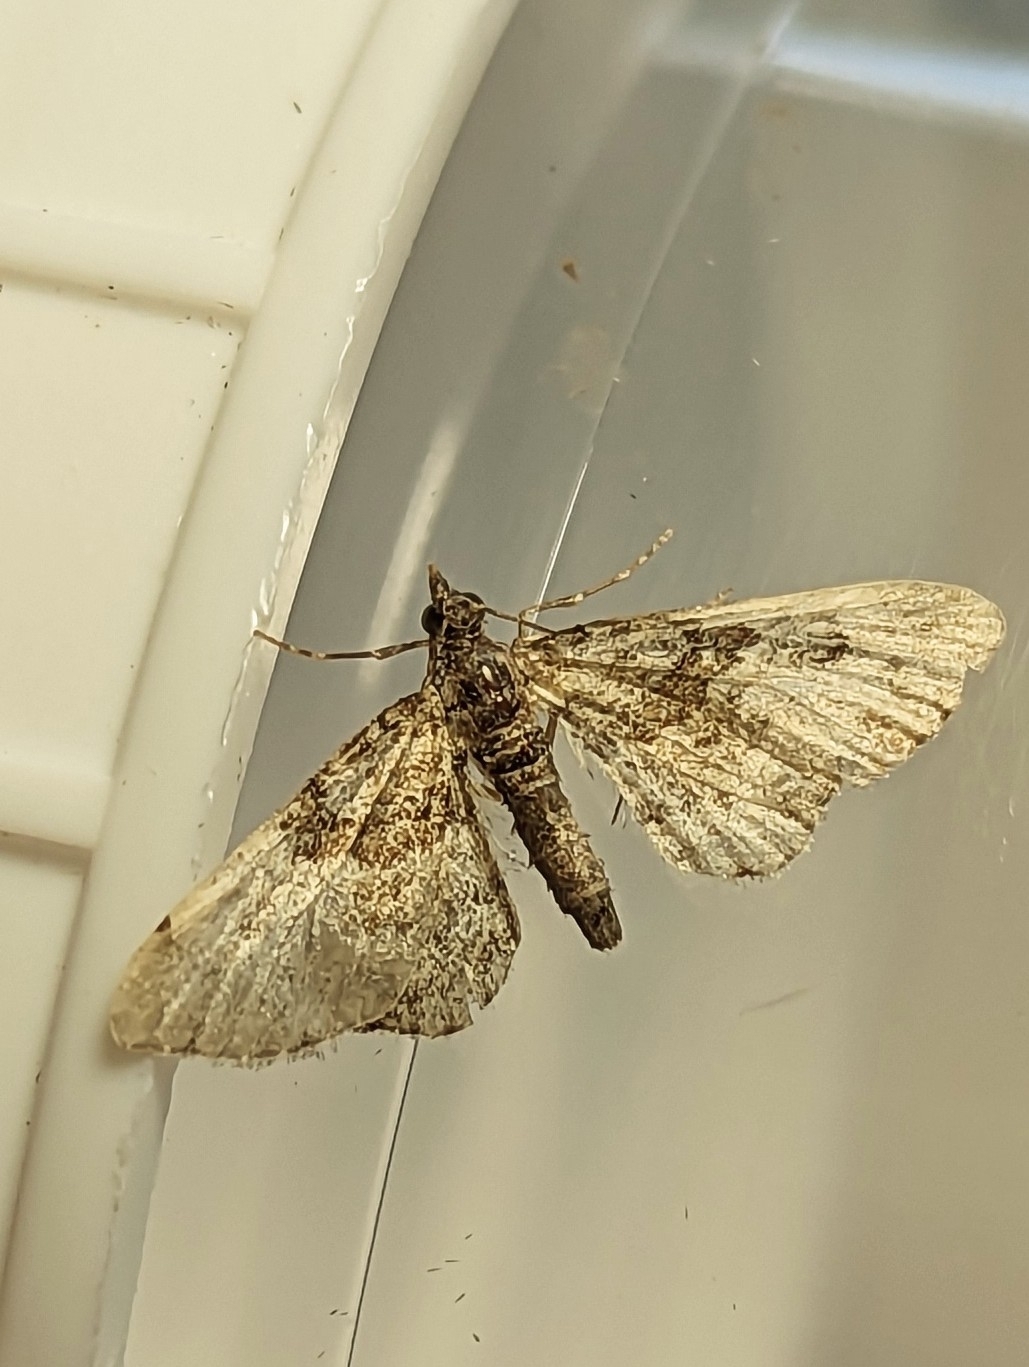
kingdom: Animalia
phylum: Arthropoda
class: Insecta
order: Lepidoptera
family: Geometridae
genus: Gymnoscelis
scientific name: Gymnoscelis rufifasciata
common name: Double-striped pug
